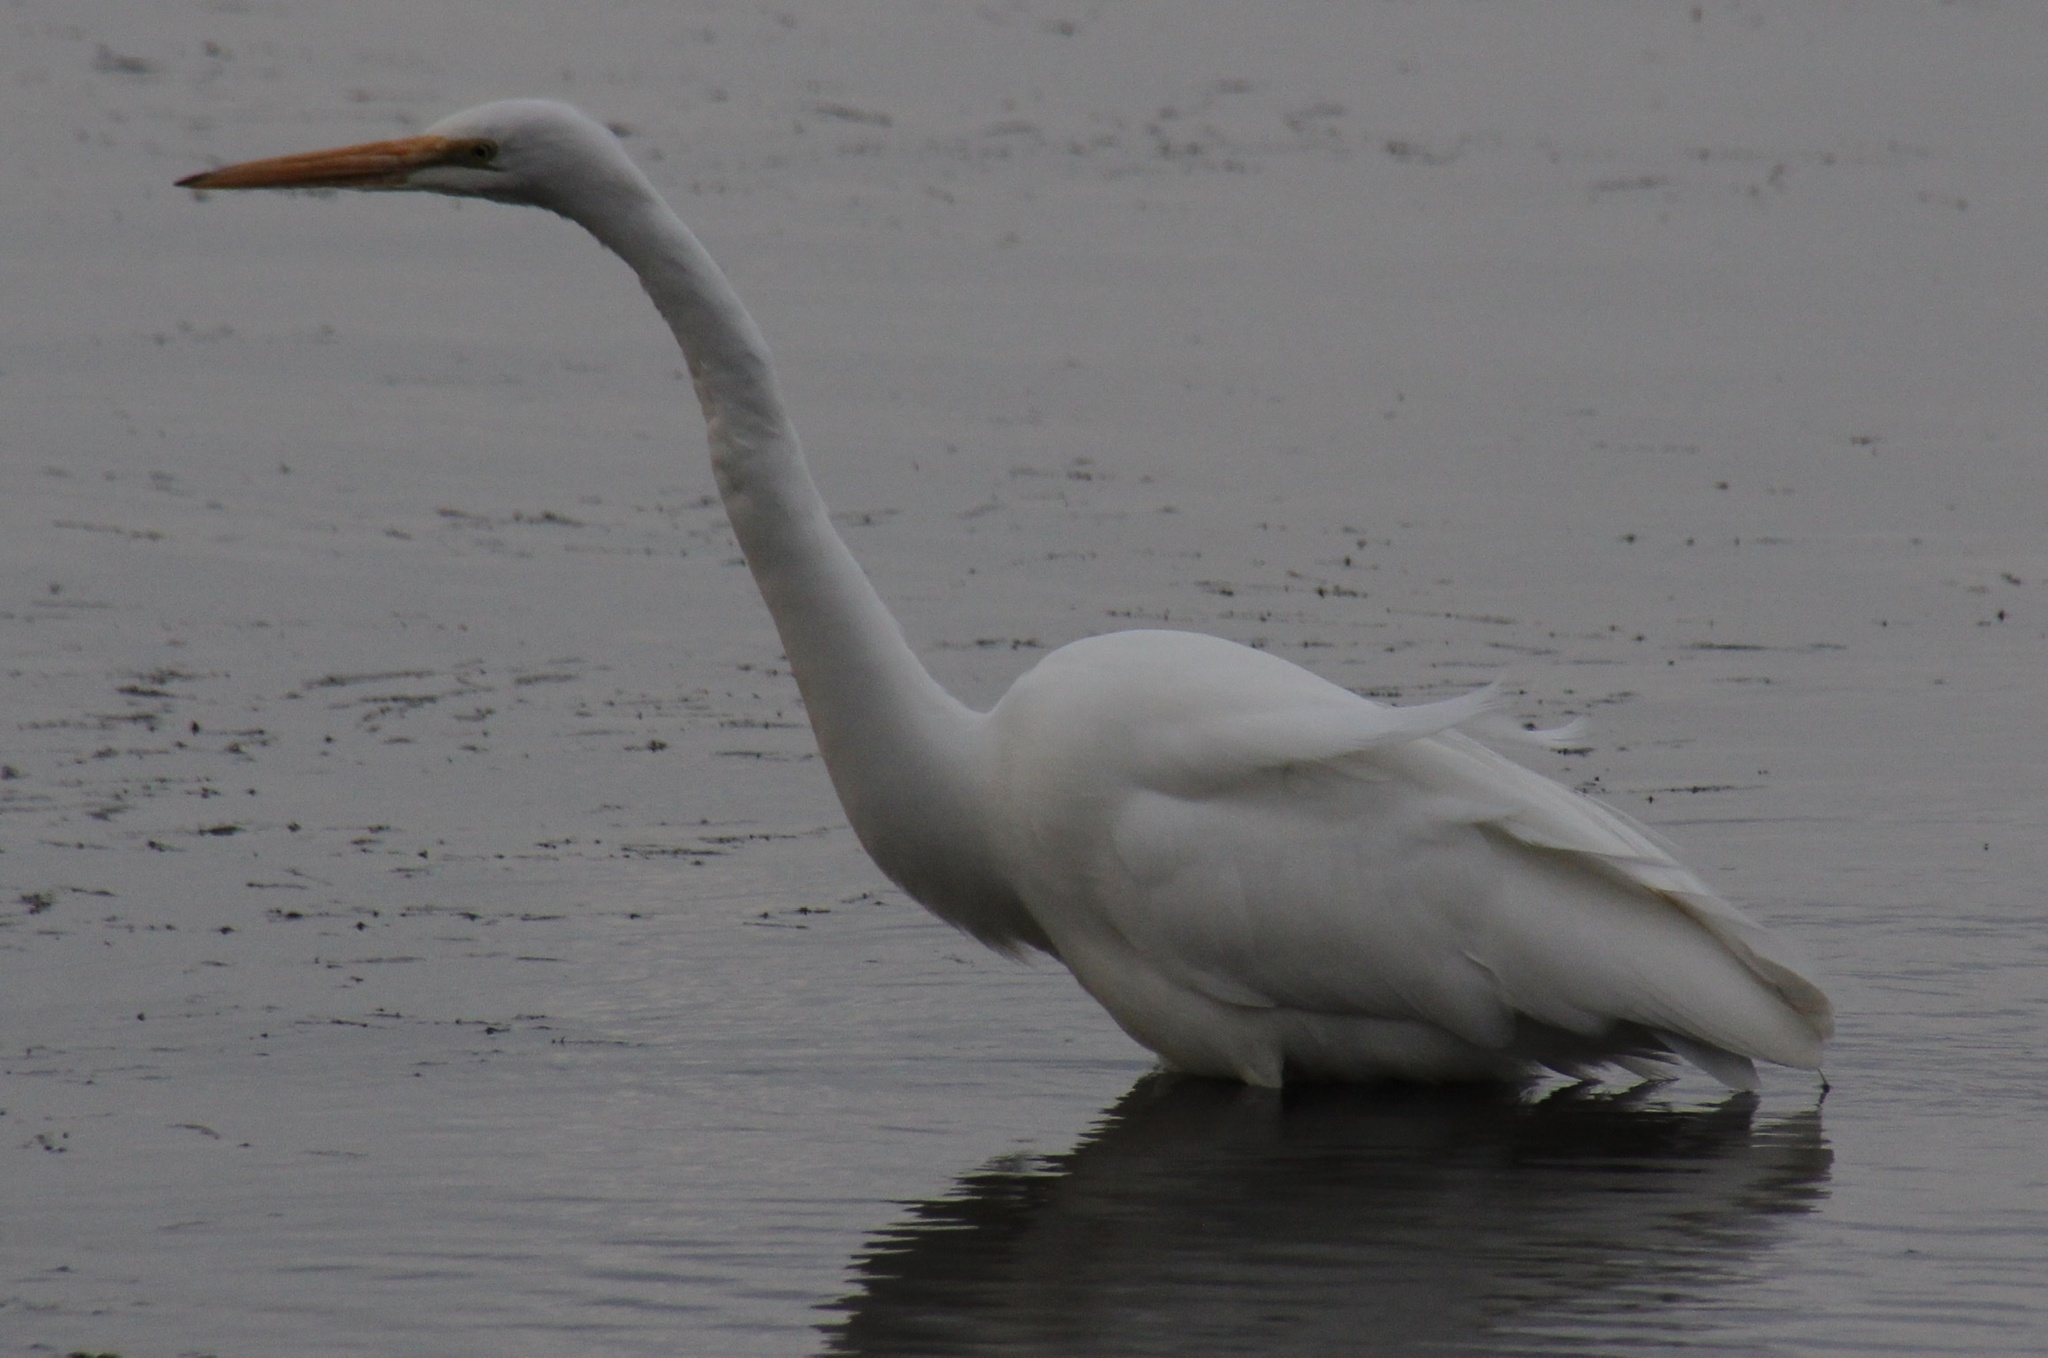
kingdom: Animalia
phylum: Chordata
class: Aves
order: Pelecaniformes
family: Ardeidae
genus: Ardea
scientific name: Ardea alba
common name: Great egret
